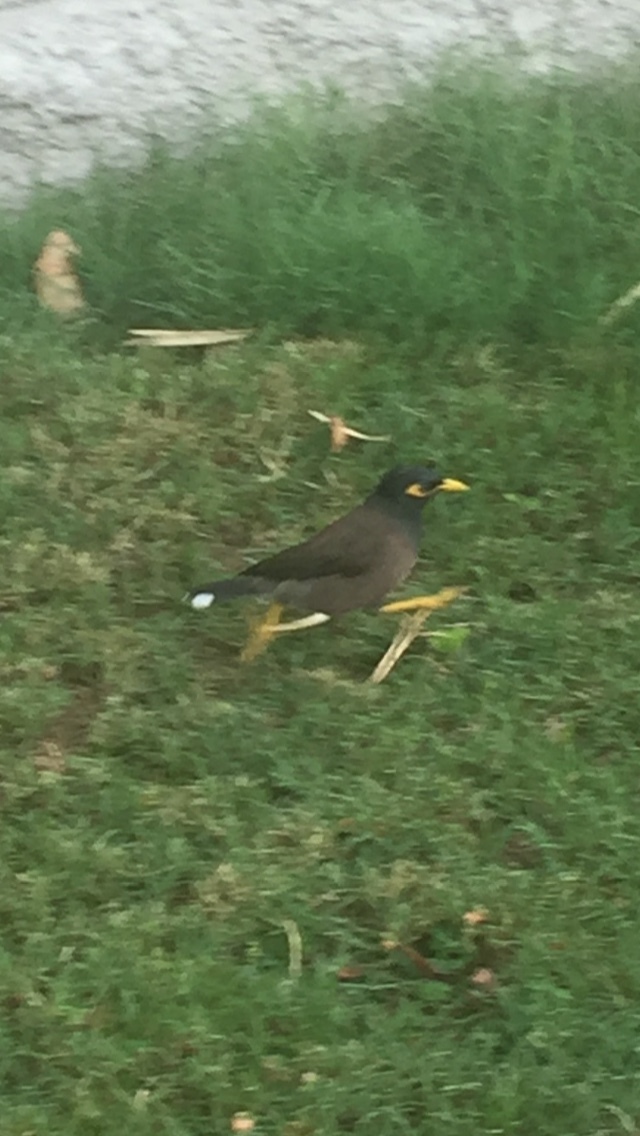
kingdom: Animalia
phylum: Chordata
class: Aves
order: Passeriformes
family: Sturnidae
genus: Acridotheres
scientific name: Acridotheres tristis
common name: Common myna
